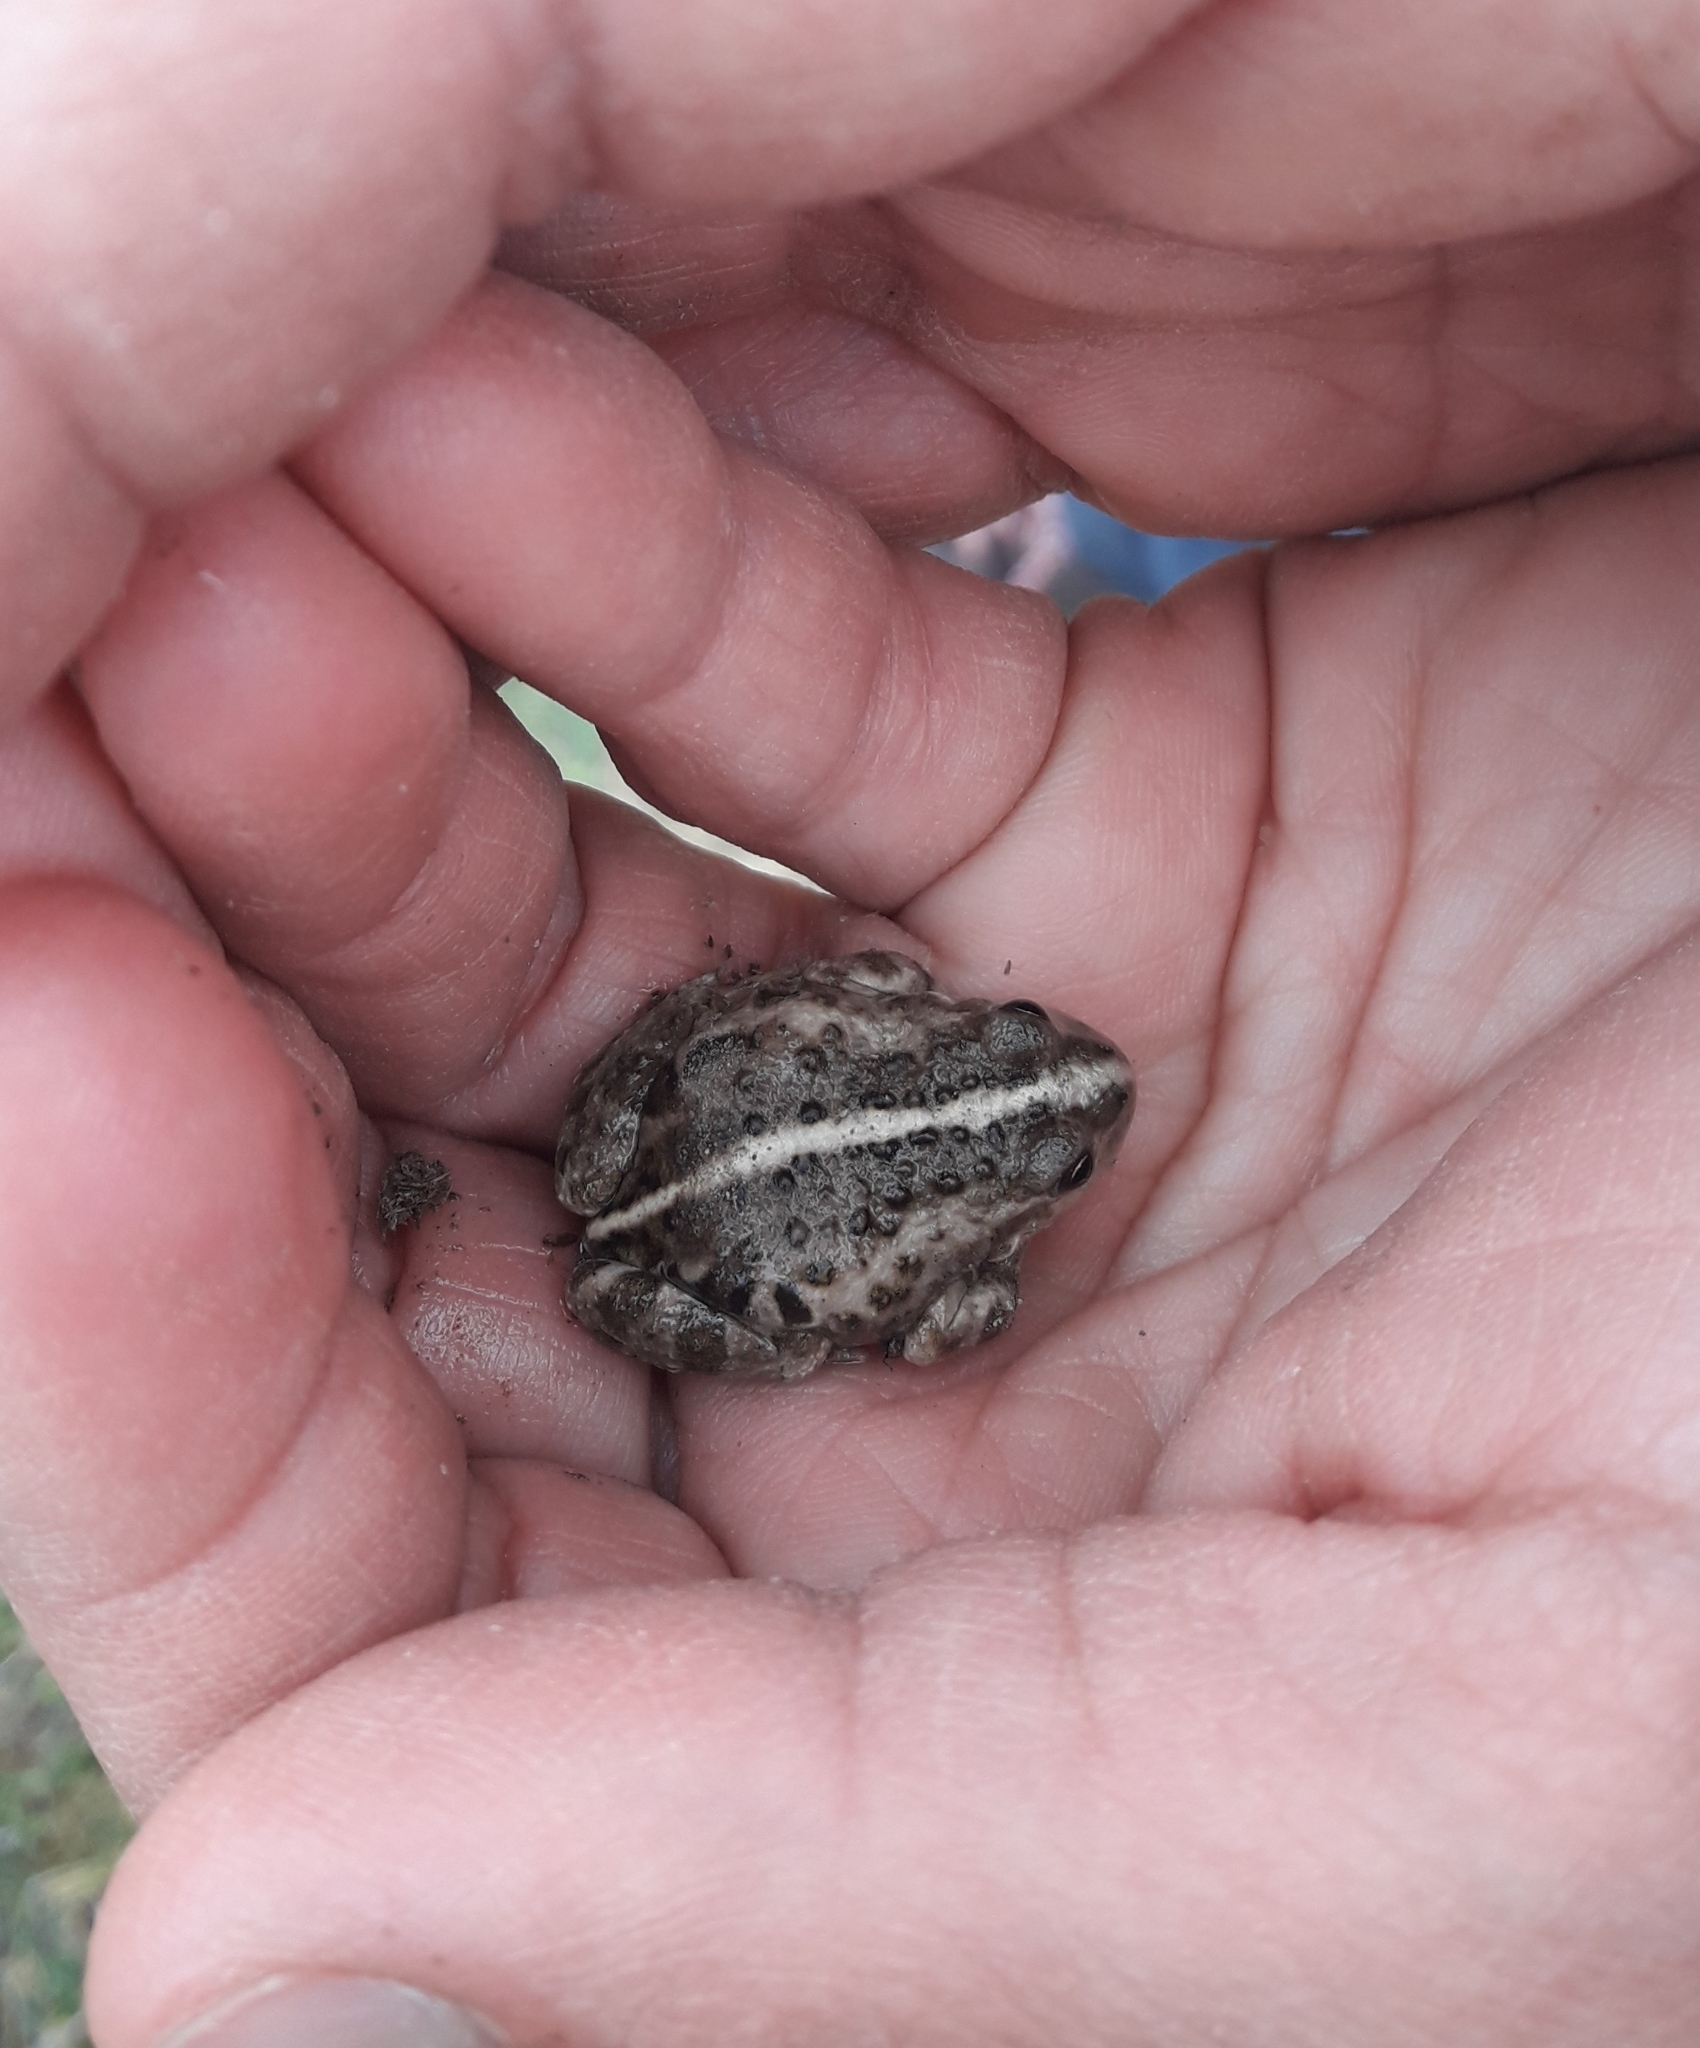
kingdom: Animalia
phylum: Chordata
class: Amphibia
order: Anura
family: Leptodactylidae
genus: Pleurodema
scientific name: Pleurodema bufoninum
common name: Large four-eyed frog
